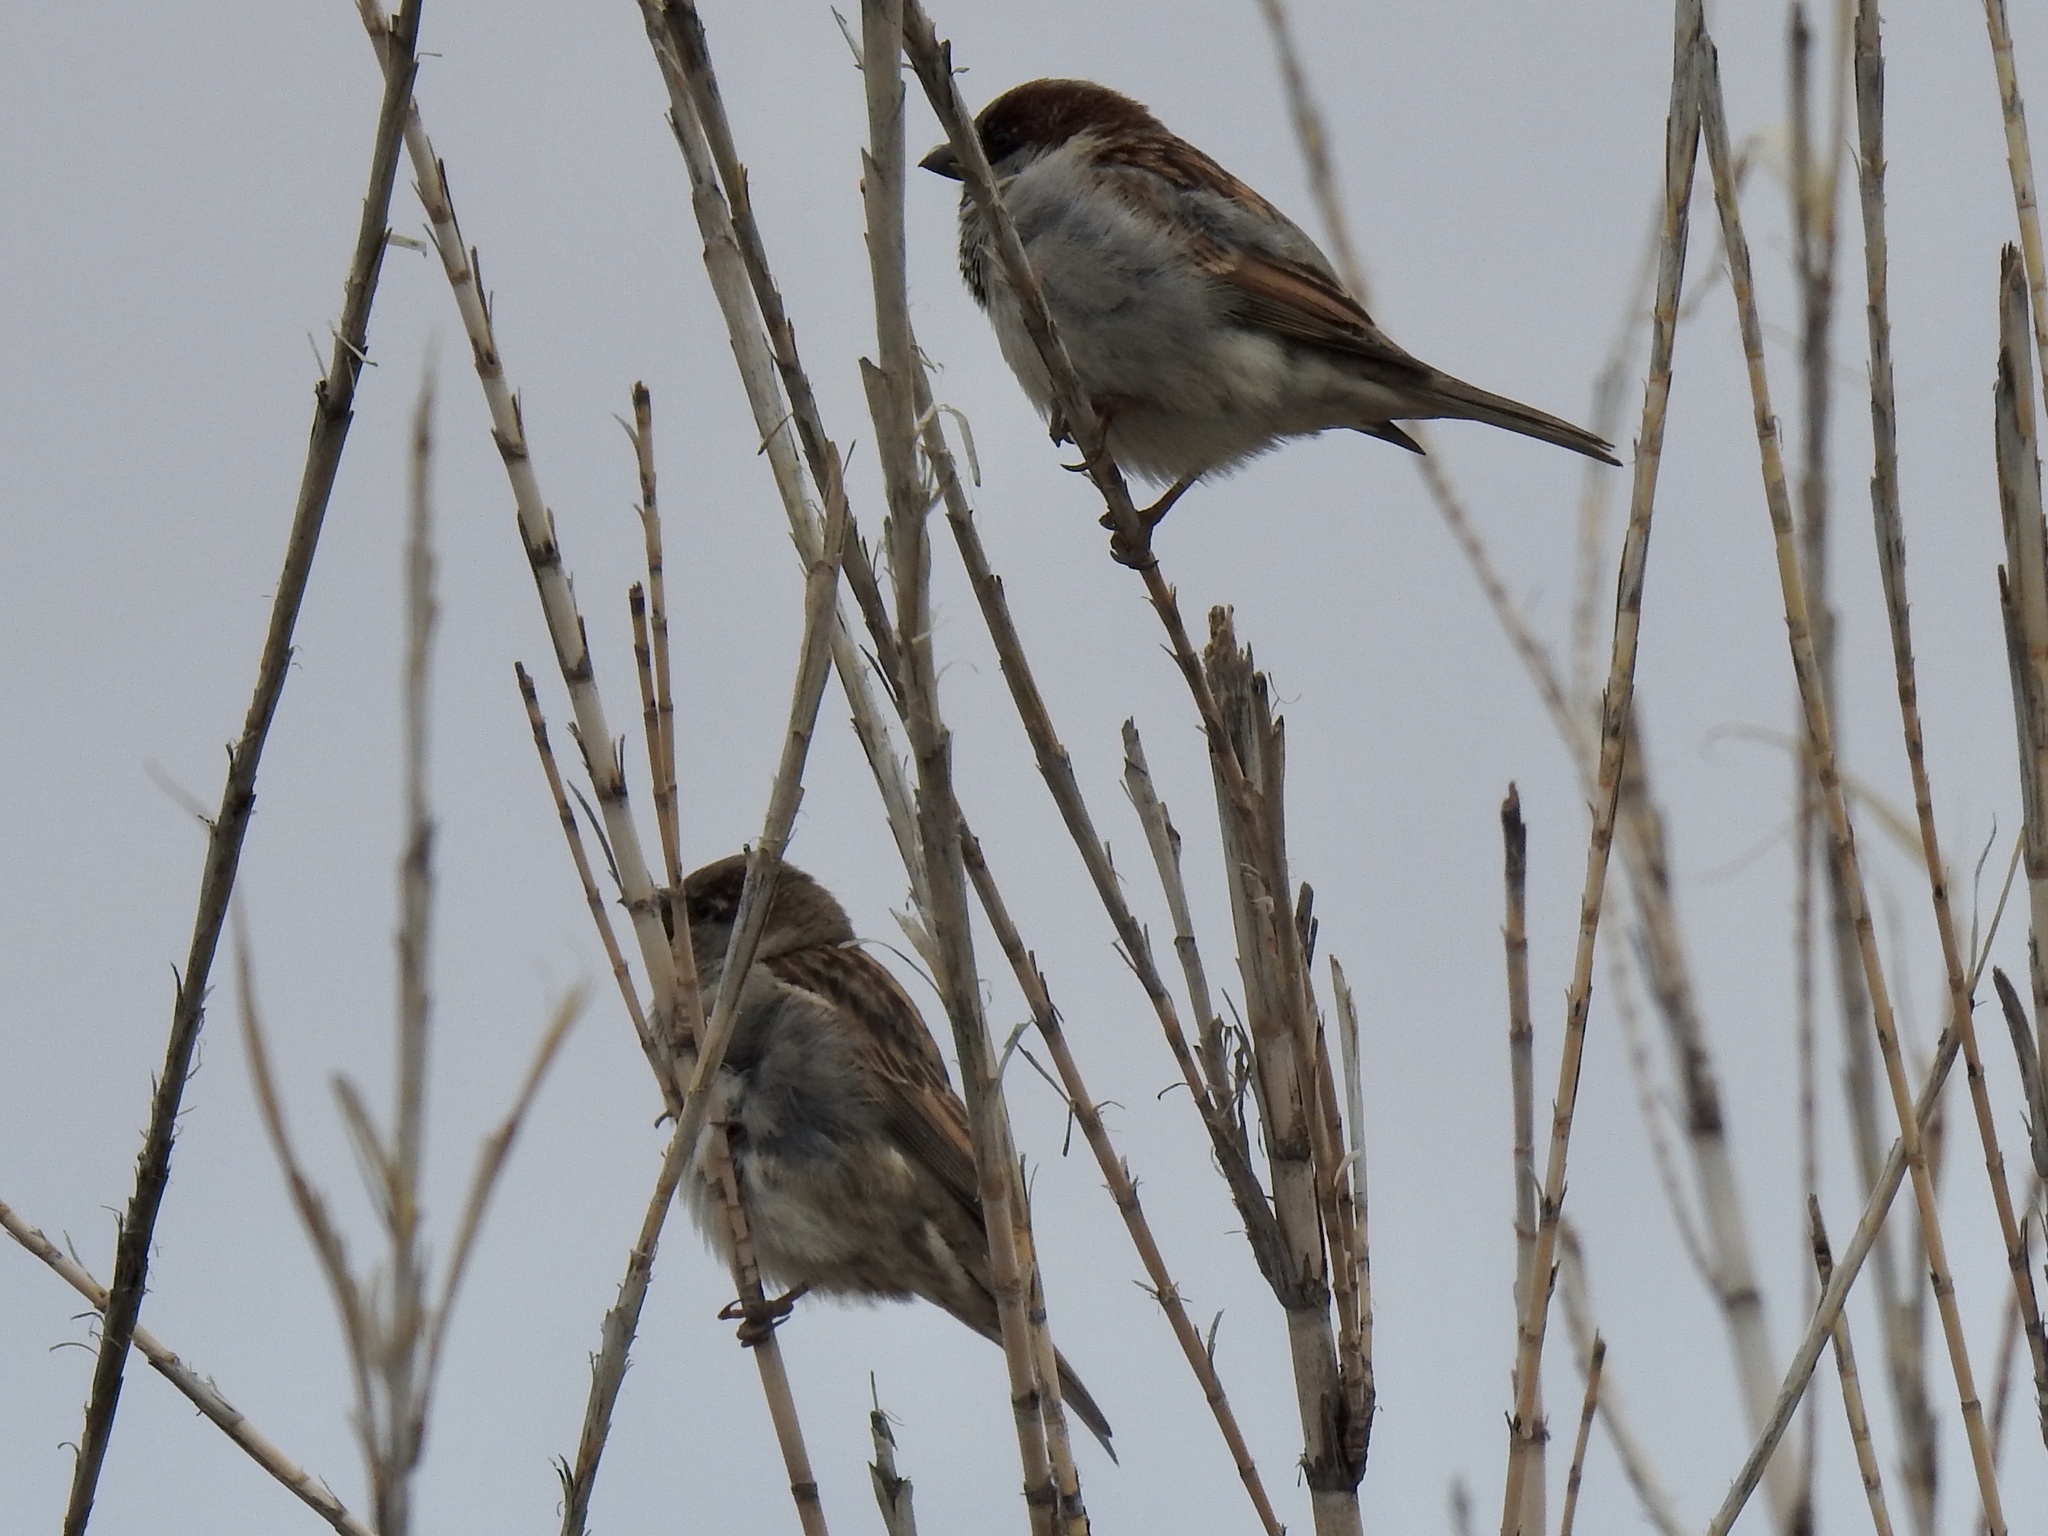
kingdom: Animalia
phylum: Chordata
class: Aves
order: Passeriformes
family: Passeridae
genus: Passer
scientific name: Passer domesticus
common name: House sparrow
